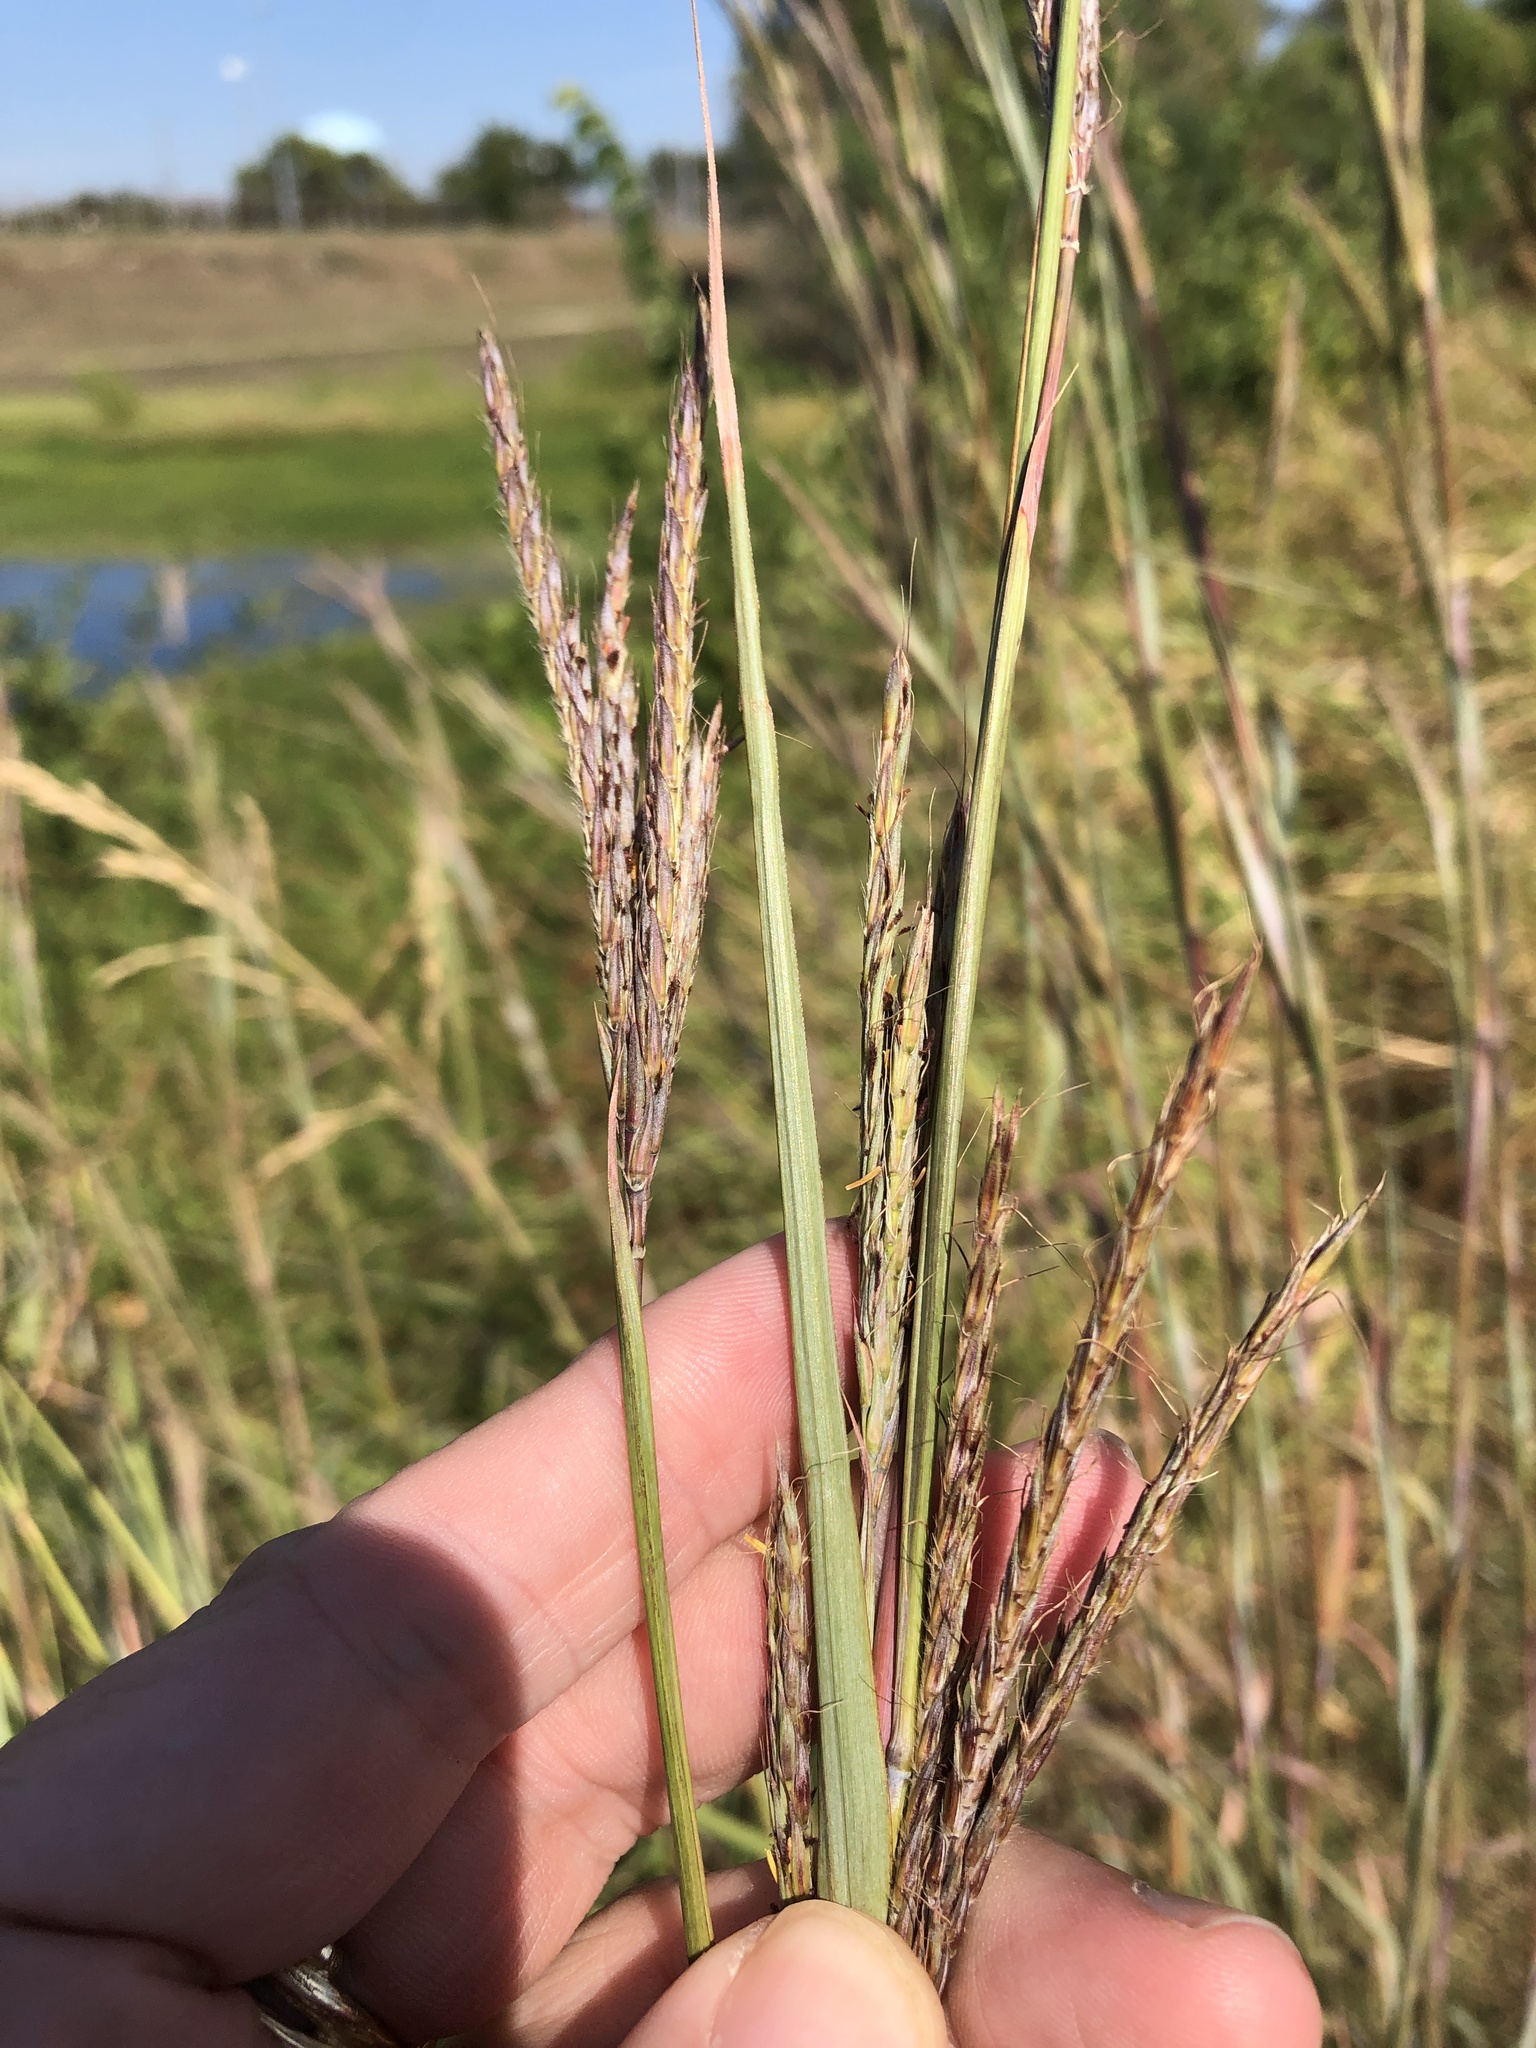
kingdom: Plantae
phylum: Tracheophyta
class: Liliopsida
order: Poales
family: Poaceae
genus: Andropogon
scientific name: Andropogon gerardi
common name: Big bluestem
